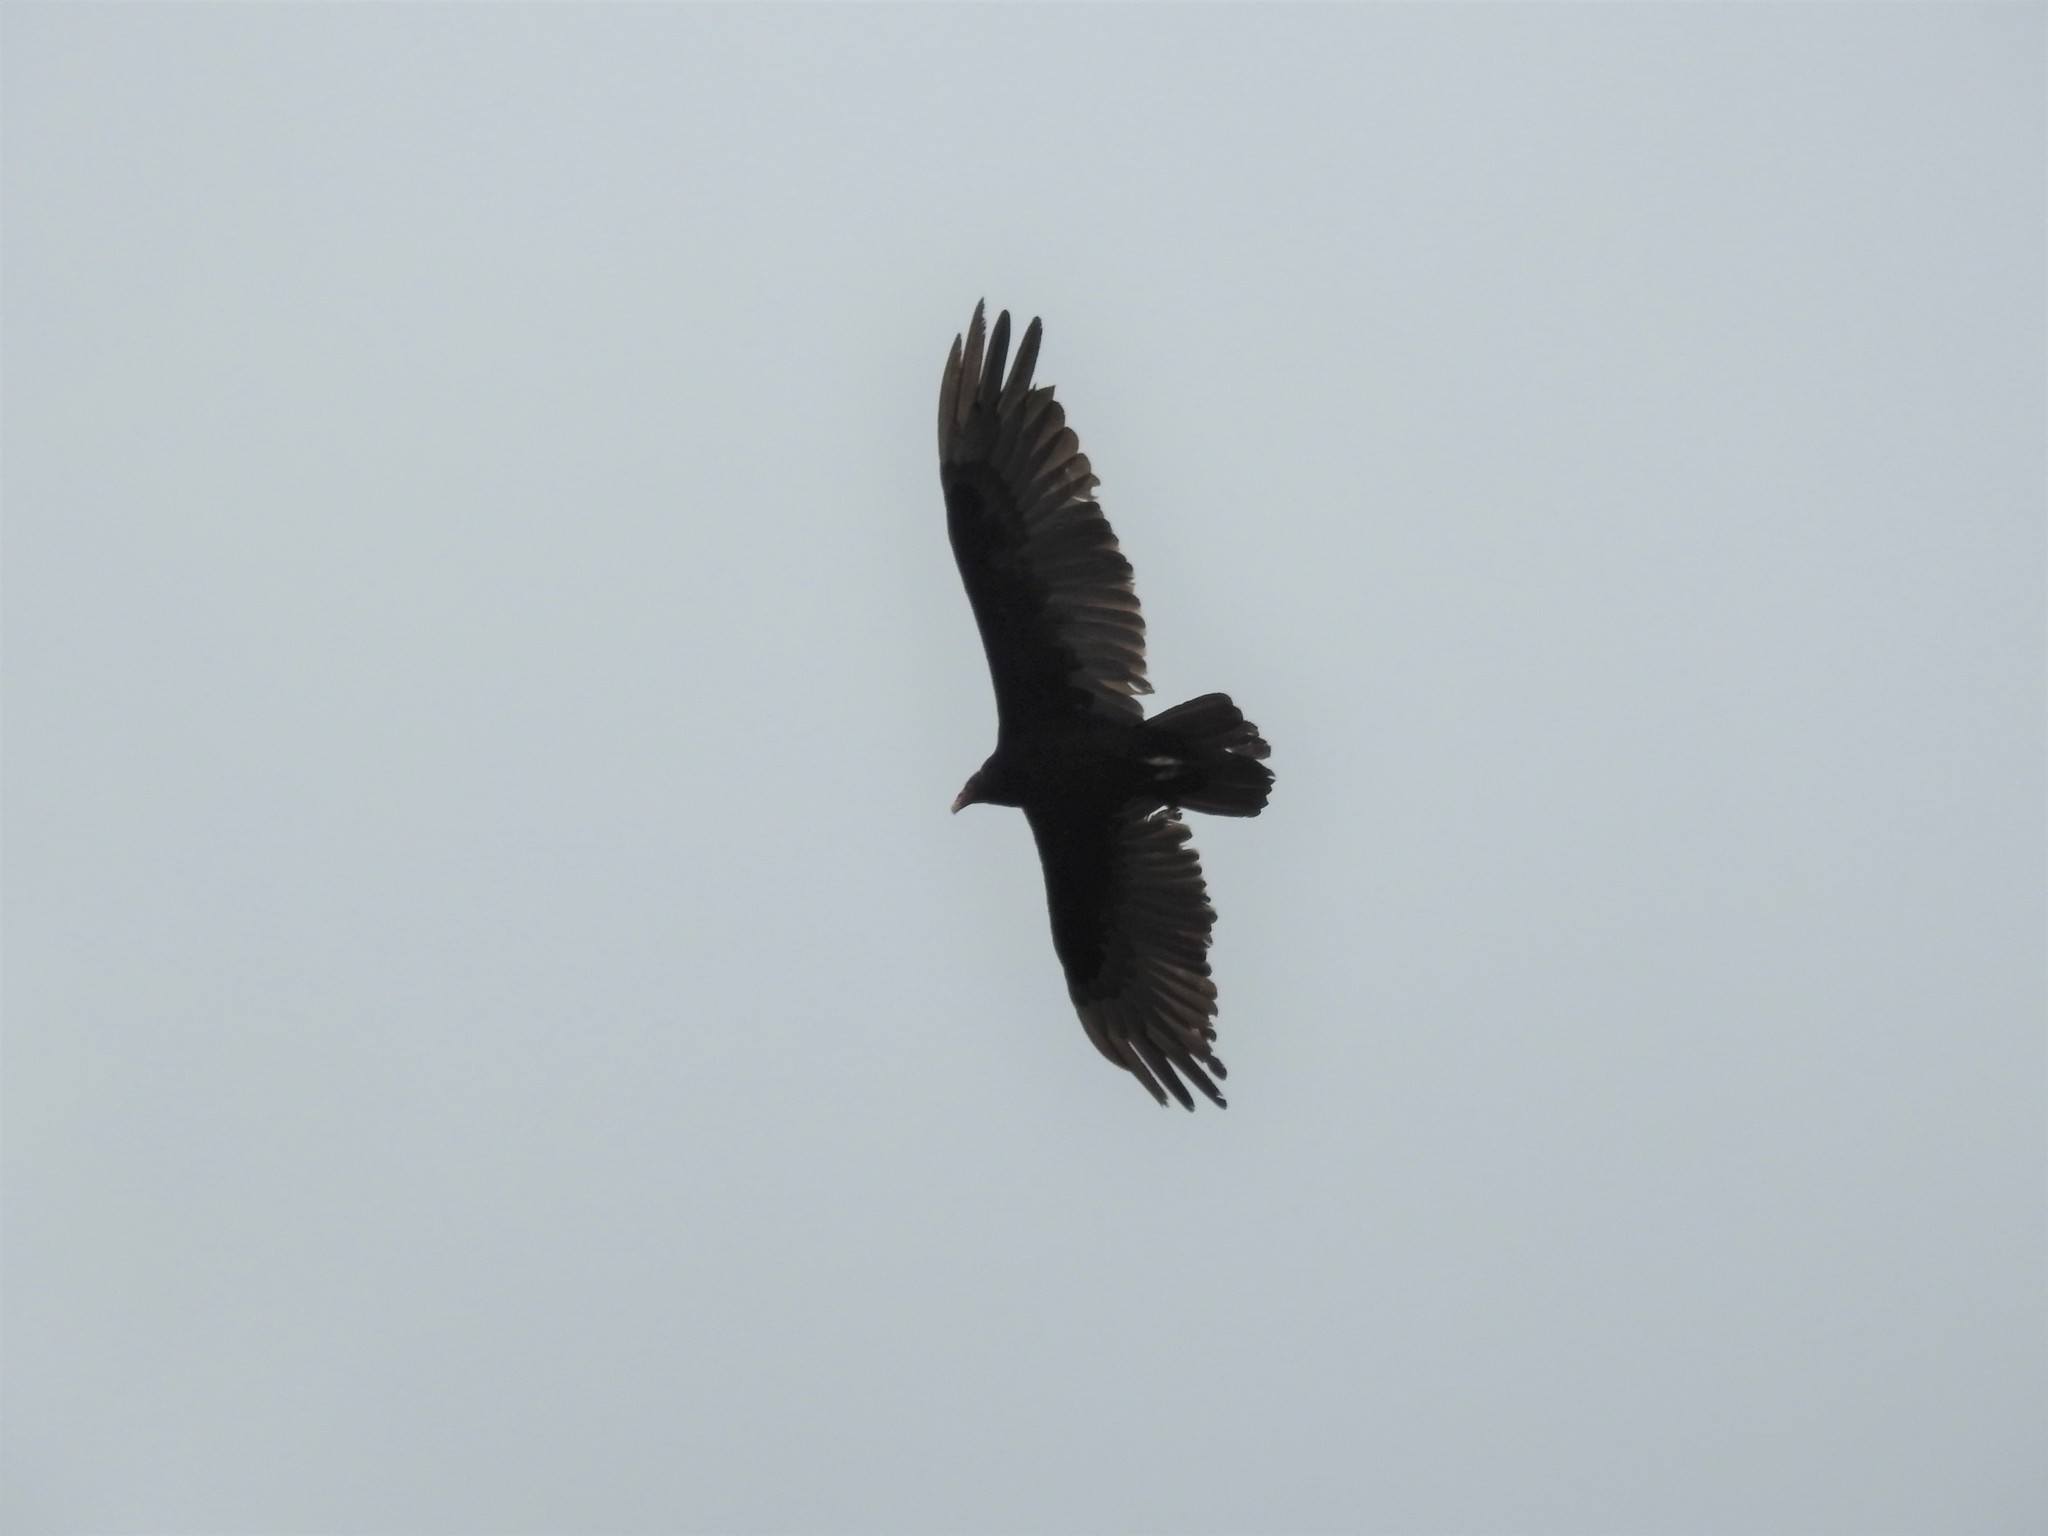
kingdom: Animalia
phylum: Chordata
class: Aves
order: Accipitriformes
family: Cathartidae
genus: Cathartes
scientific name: Cathartes aura
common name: Turkey vulture
